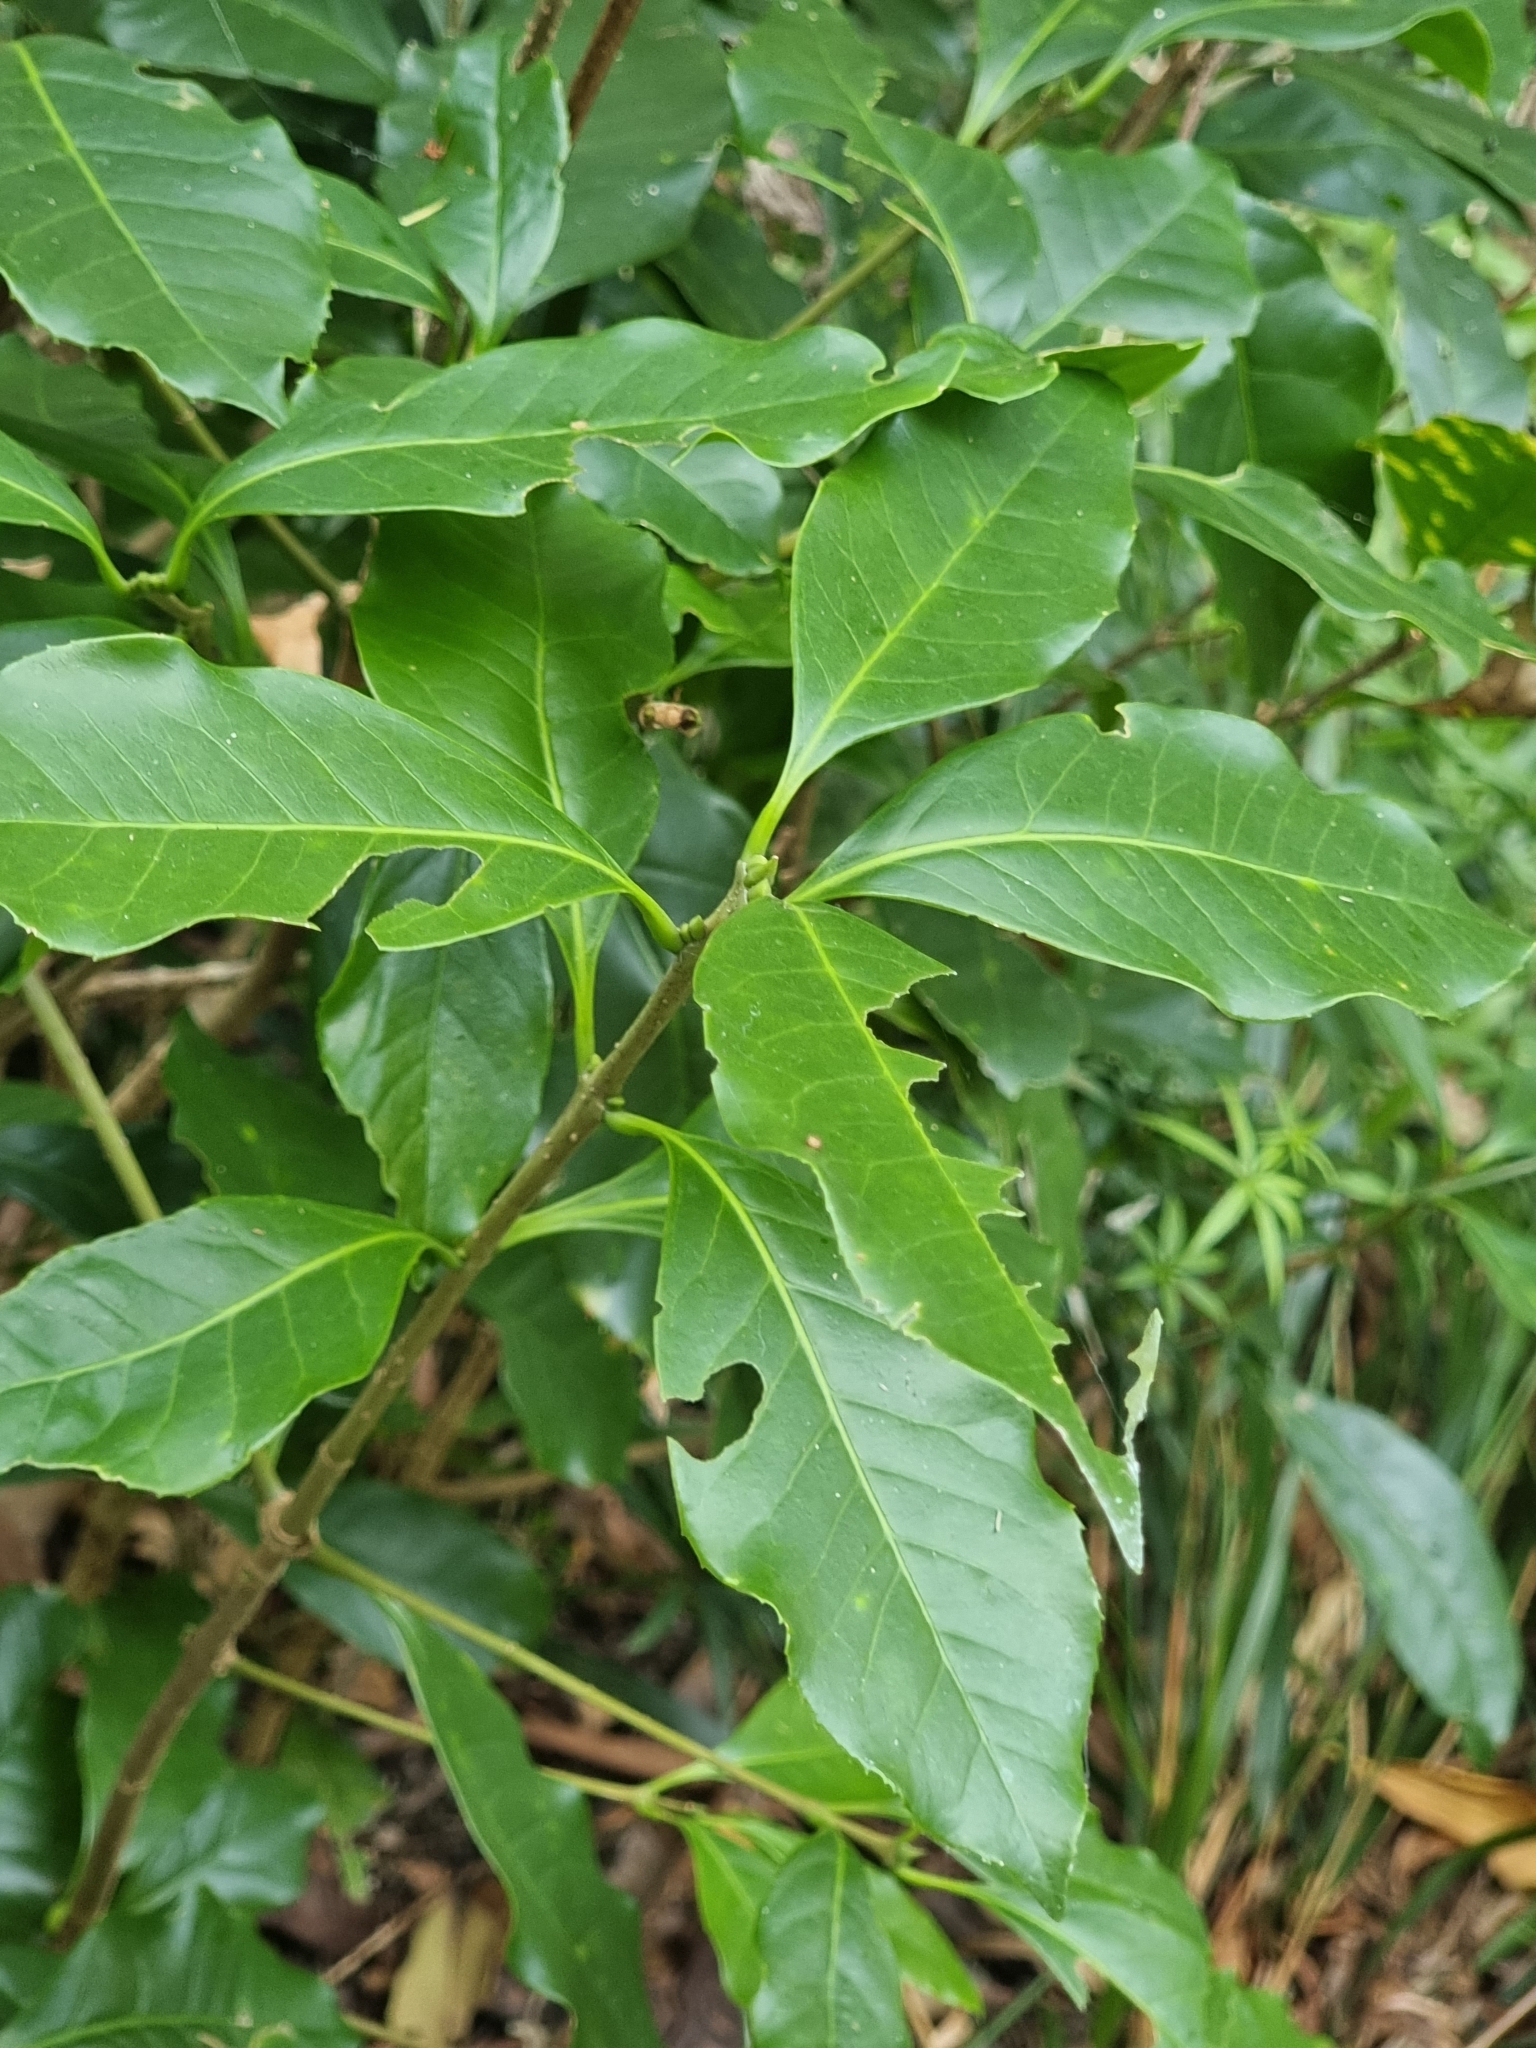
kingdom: Plantae
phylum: Tracheophyta
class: Magnoliopsida
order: Lamiales
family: Oleaceae
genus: Picconia
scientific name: Picconia excelsa
